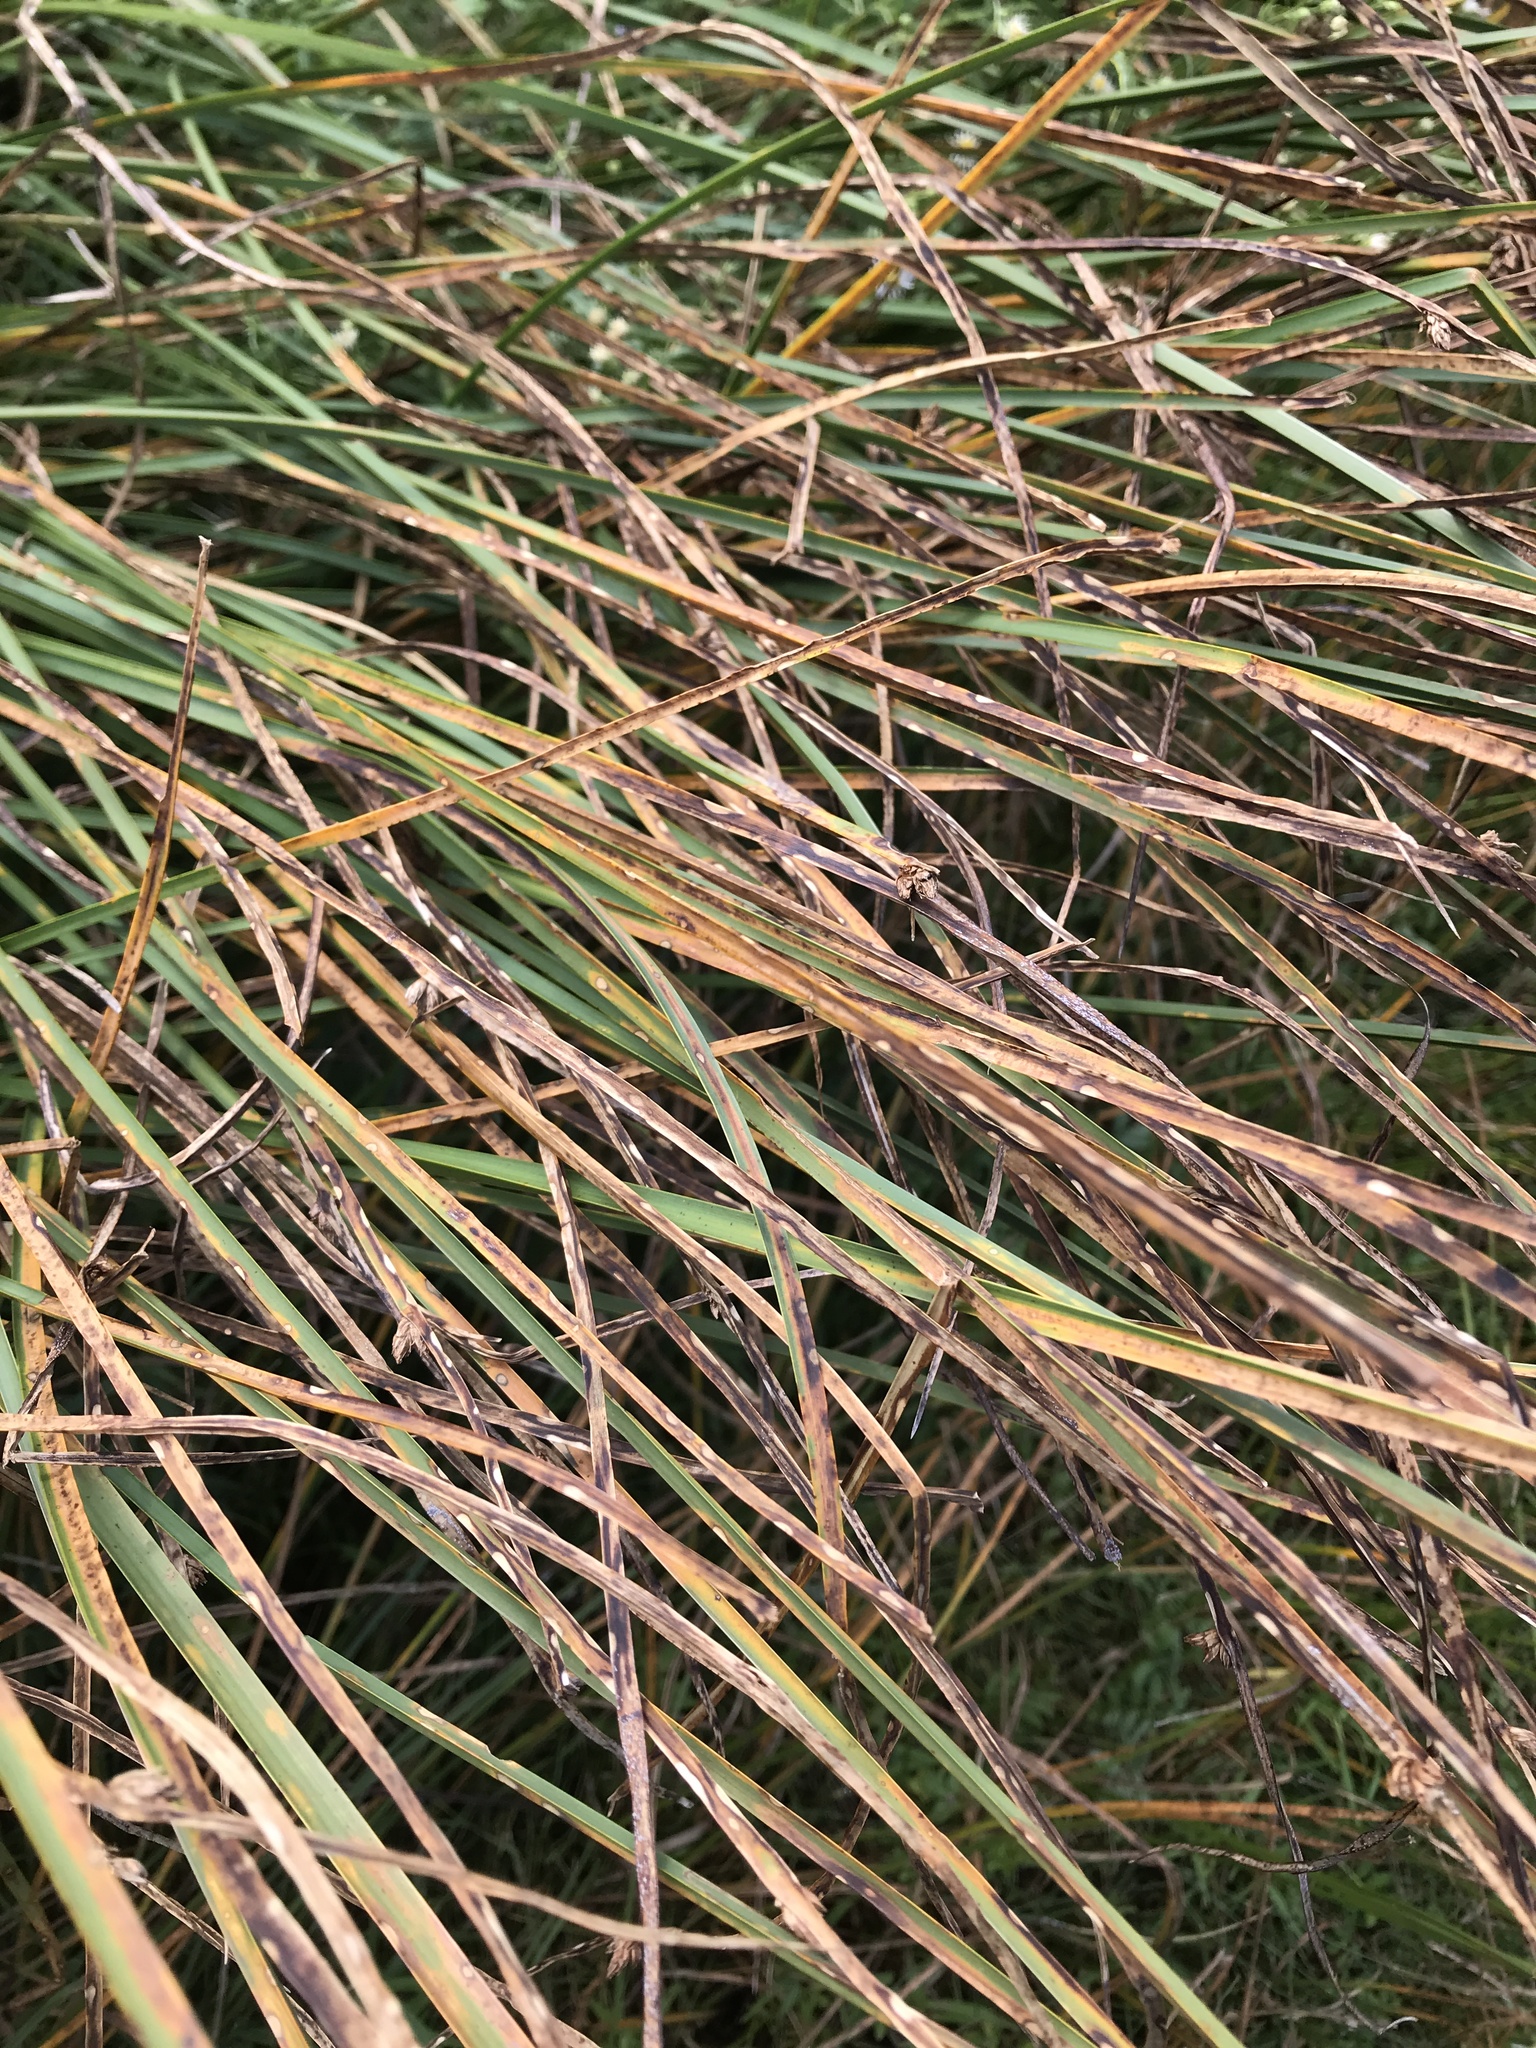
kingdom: Plantae
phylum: Tracheophyta
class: Liliopsida
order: Poales
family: Cyperaceae
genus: Scirpus
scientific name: Scirpus cyperinus
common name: Black-sheathed bulrush
